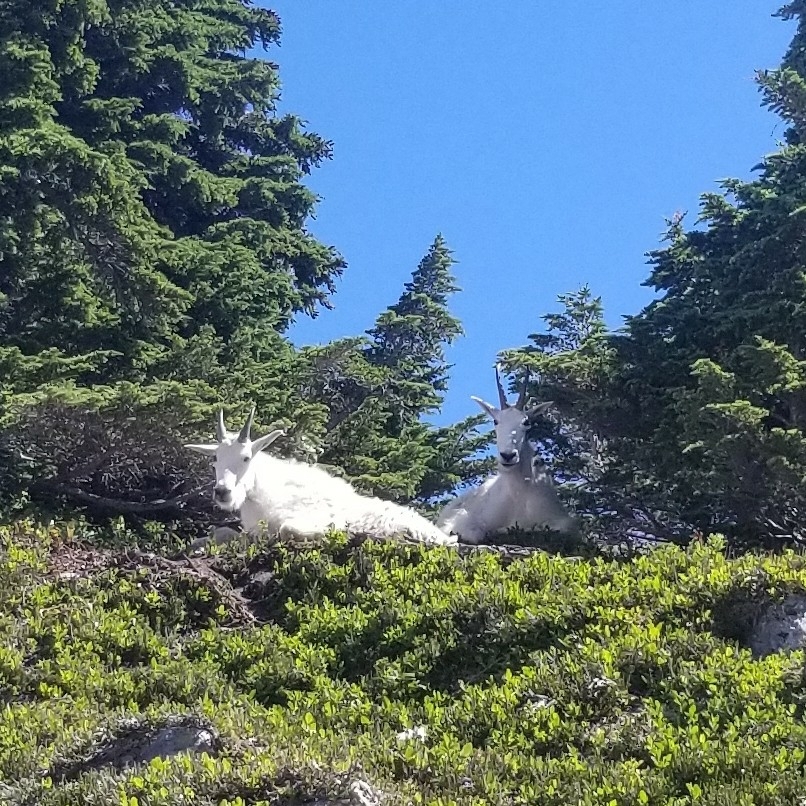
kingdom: Animalia
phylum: Chordata
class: Mammalia
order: Artiodactyla
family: Bovidae
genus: Oreamnos
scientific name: Oreamnos americanus
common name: Mountain goat
